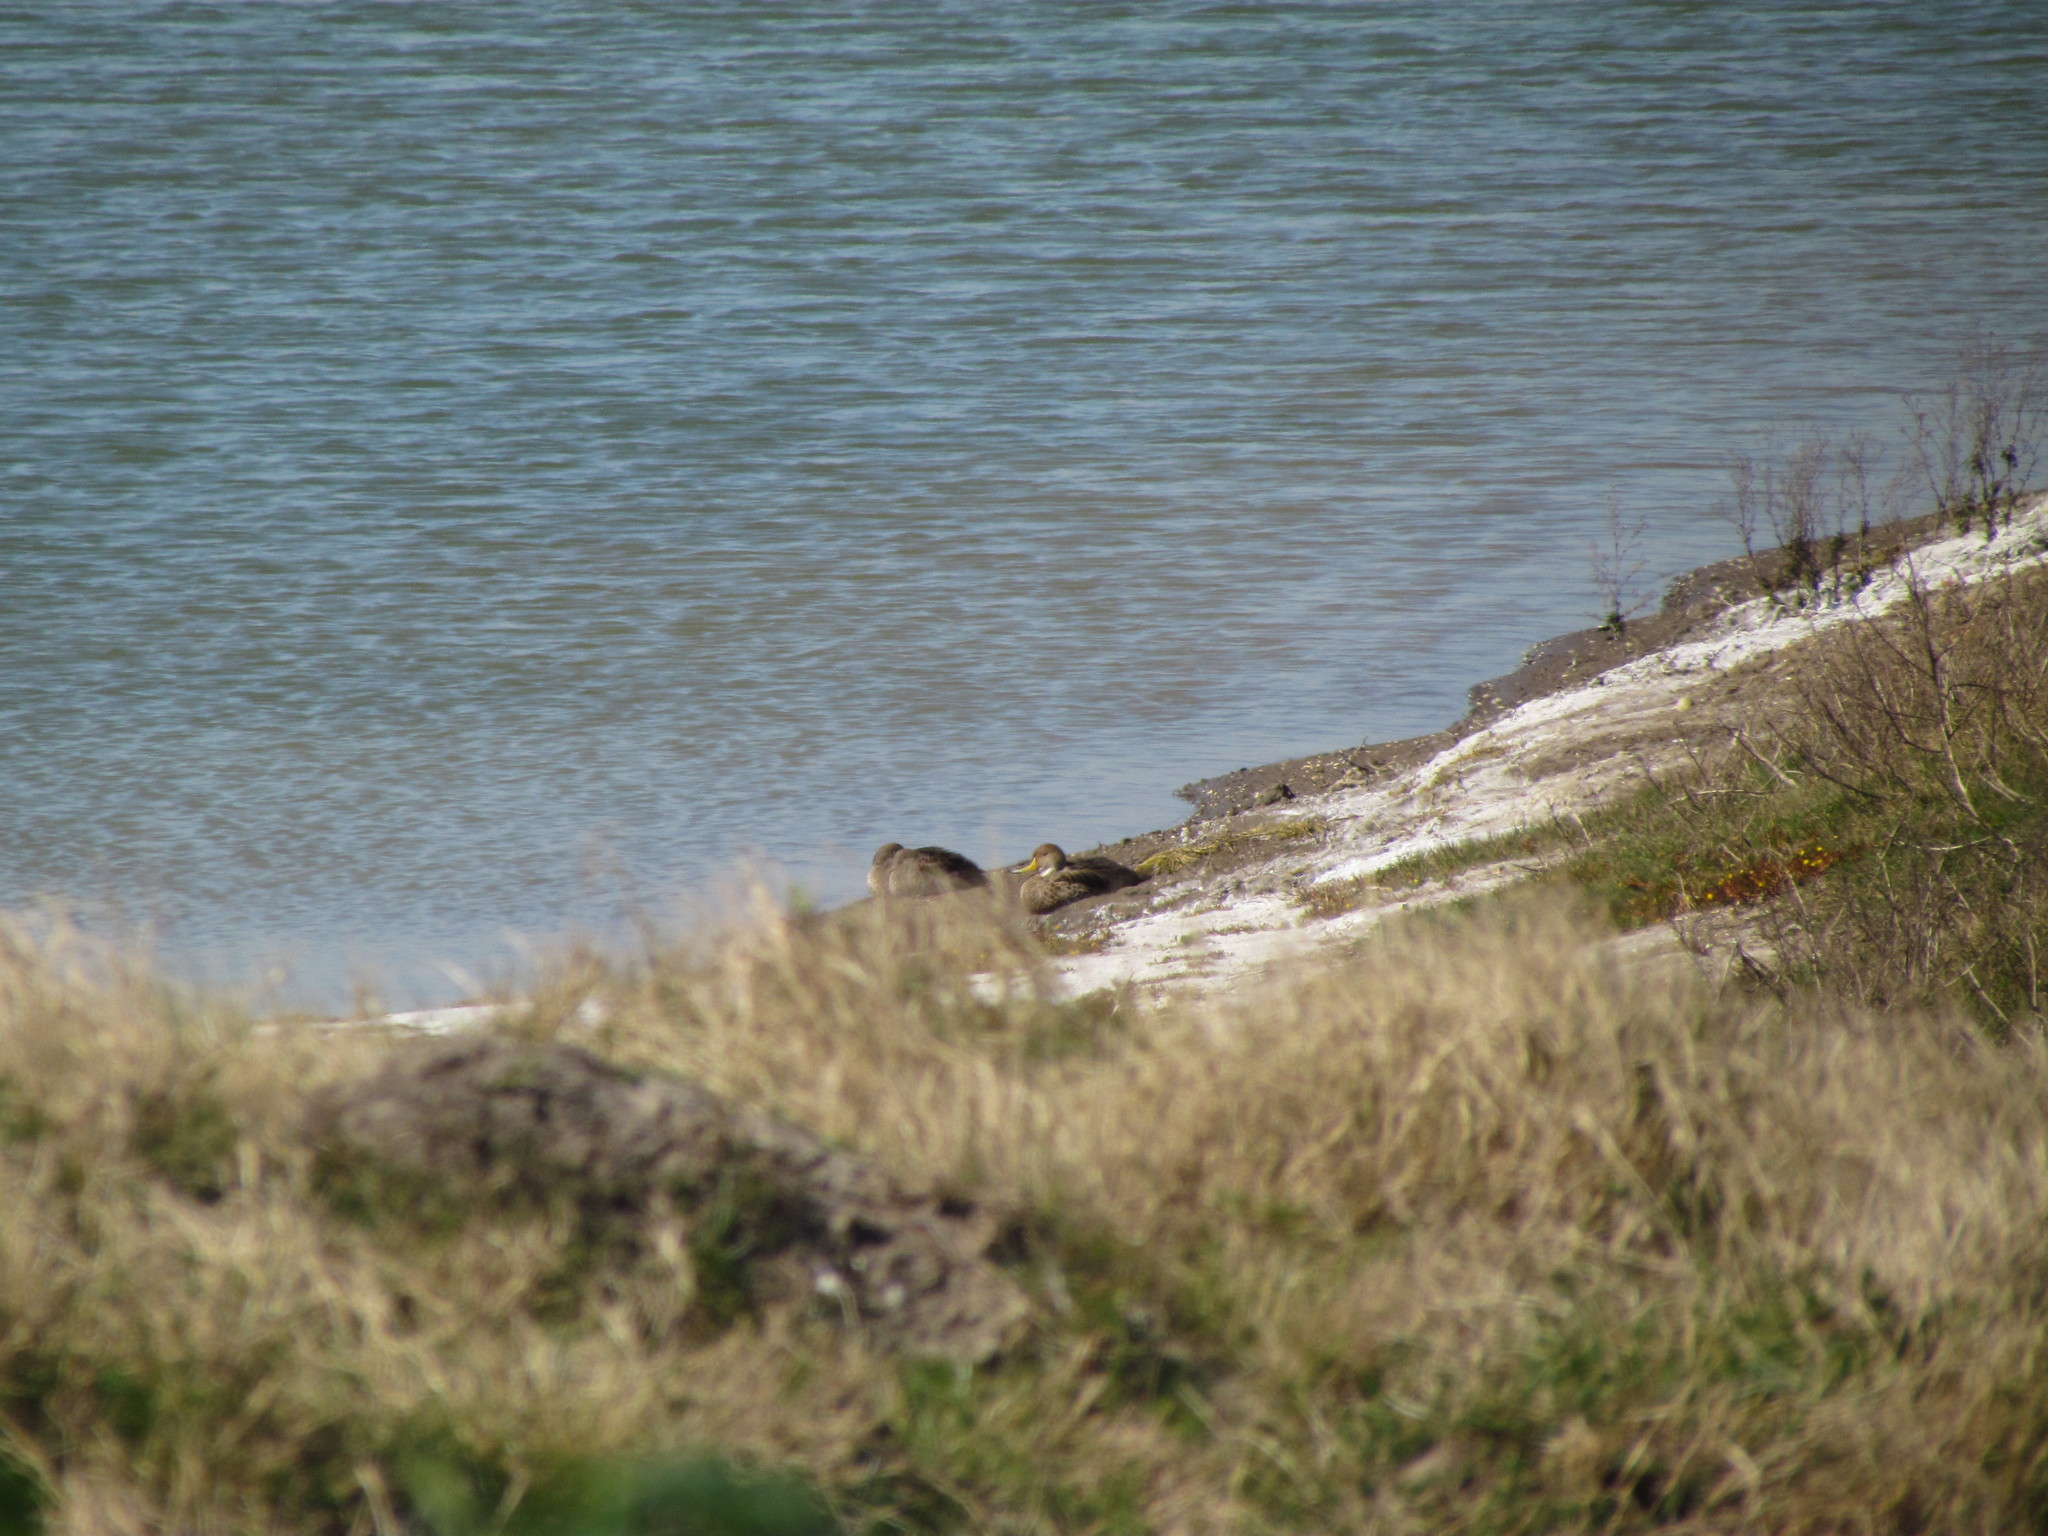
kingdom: Animalia
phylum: Chordata
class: Aves
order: Anseriformes
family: Anatidae
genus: Anas
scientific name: Anas georgica
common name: Yellow-billed pintail
